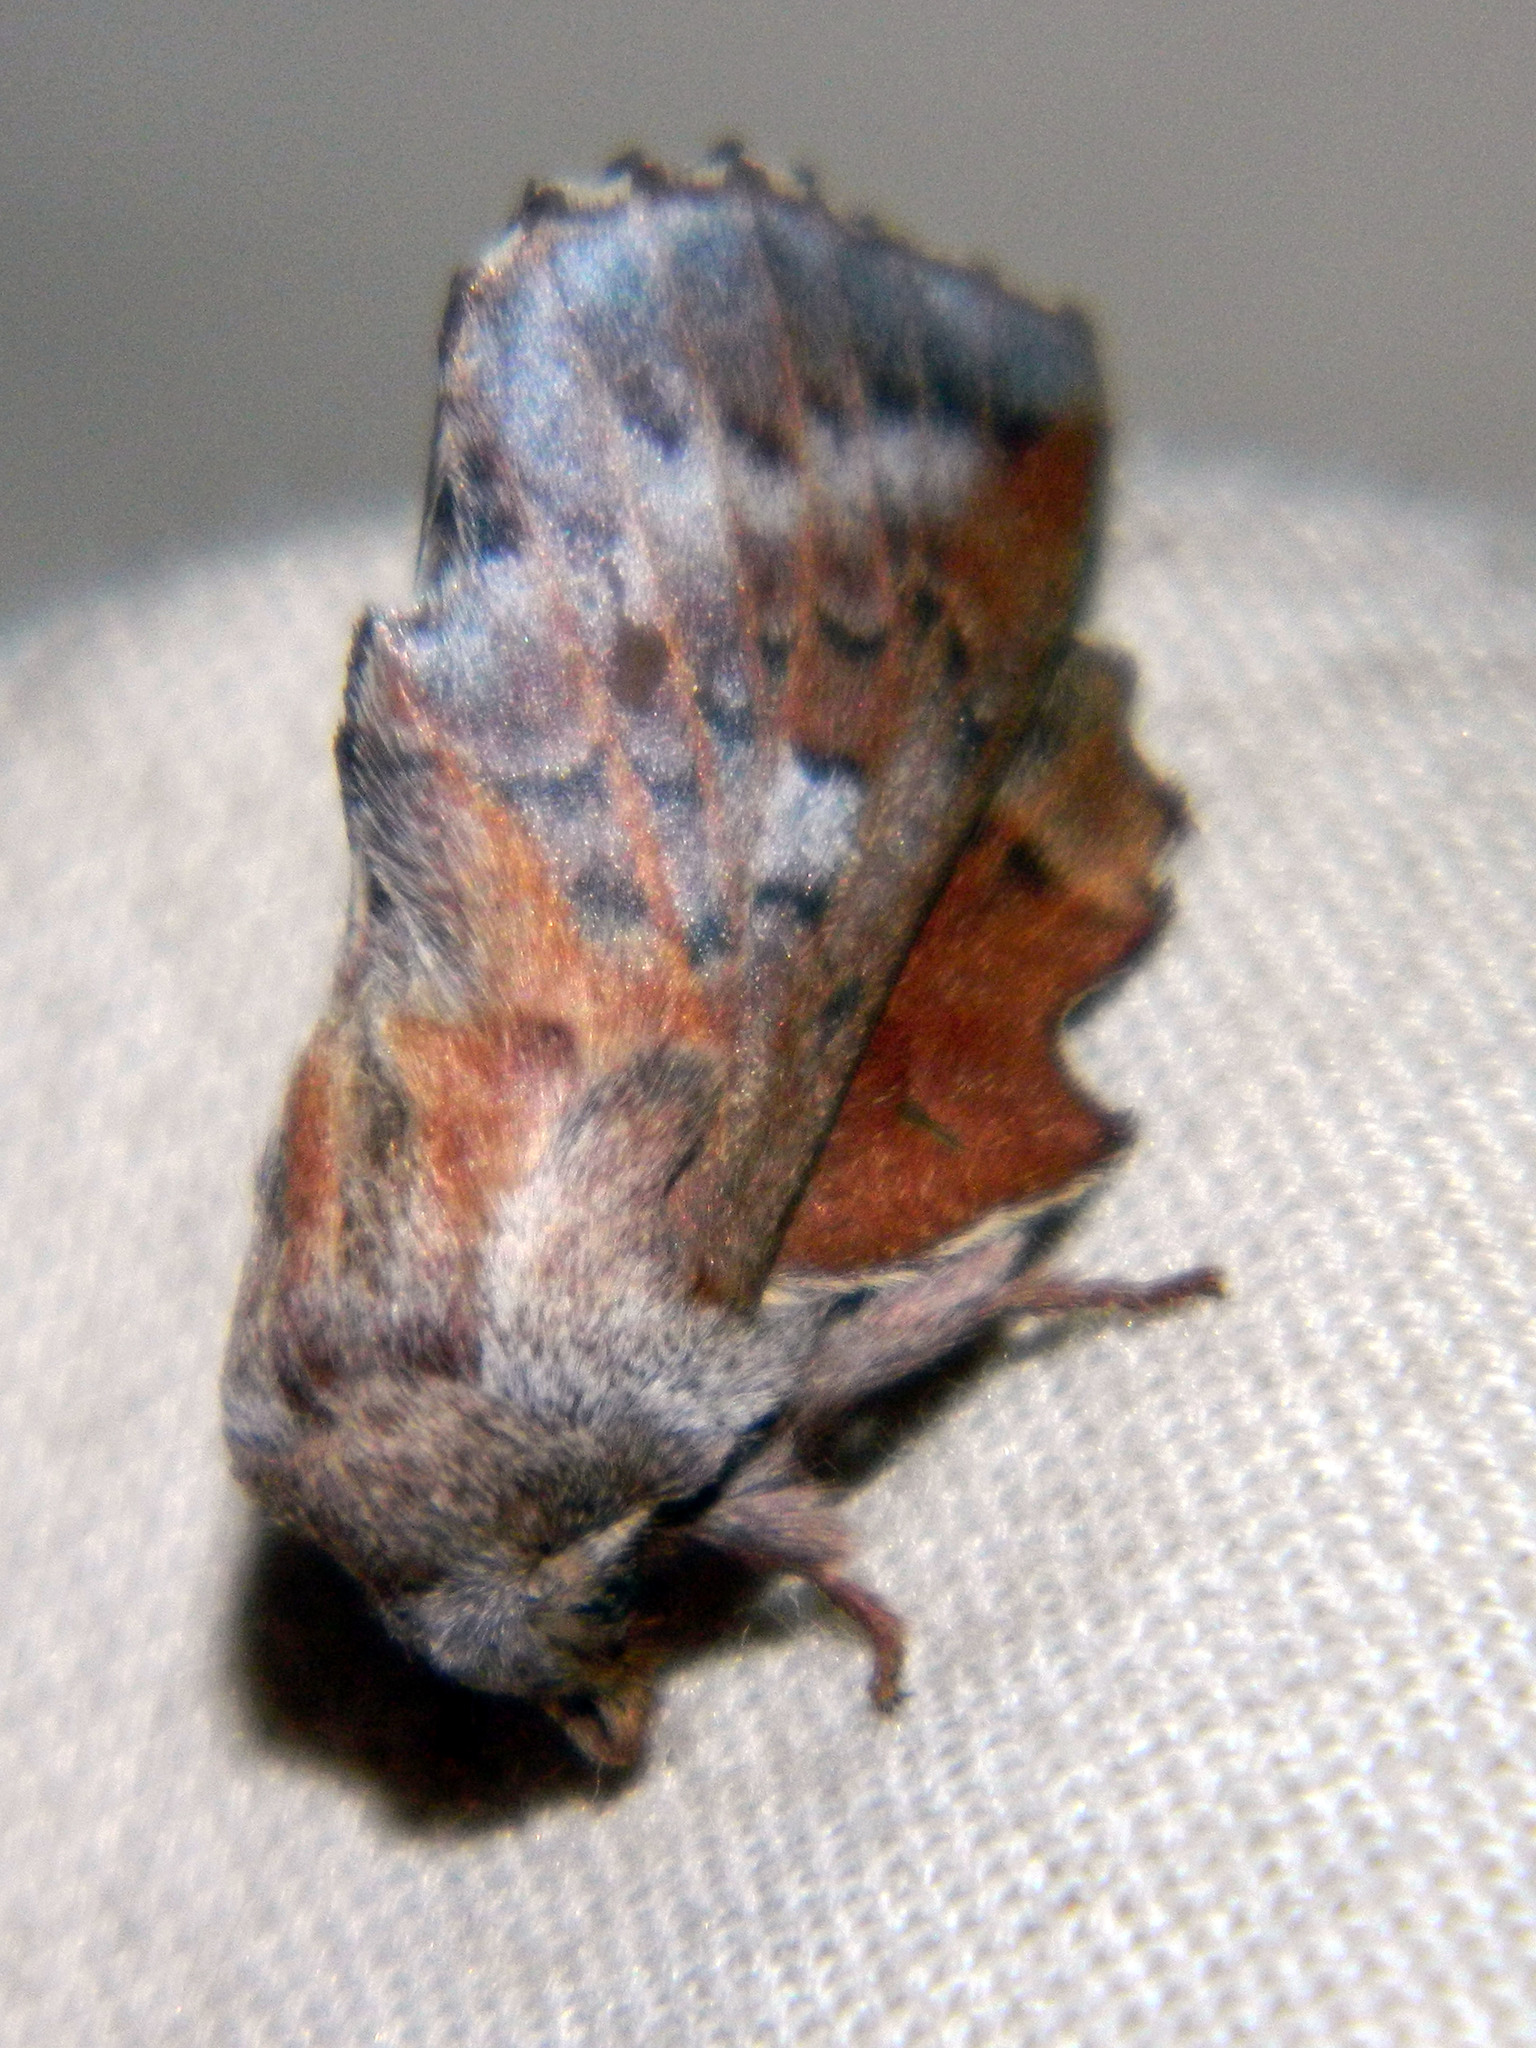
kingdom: Animalia
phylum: Arthropoda
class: Insecta
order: Lepidoptera
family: Lasiocampidae
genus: Phyllodesma
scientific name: Phyllodesma americana
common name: American lappet moth
